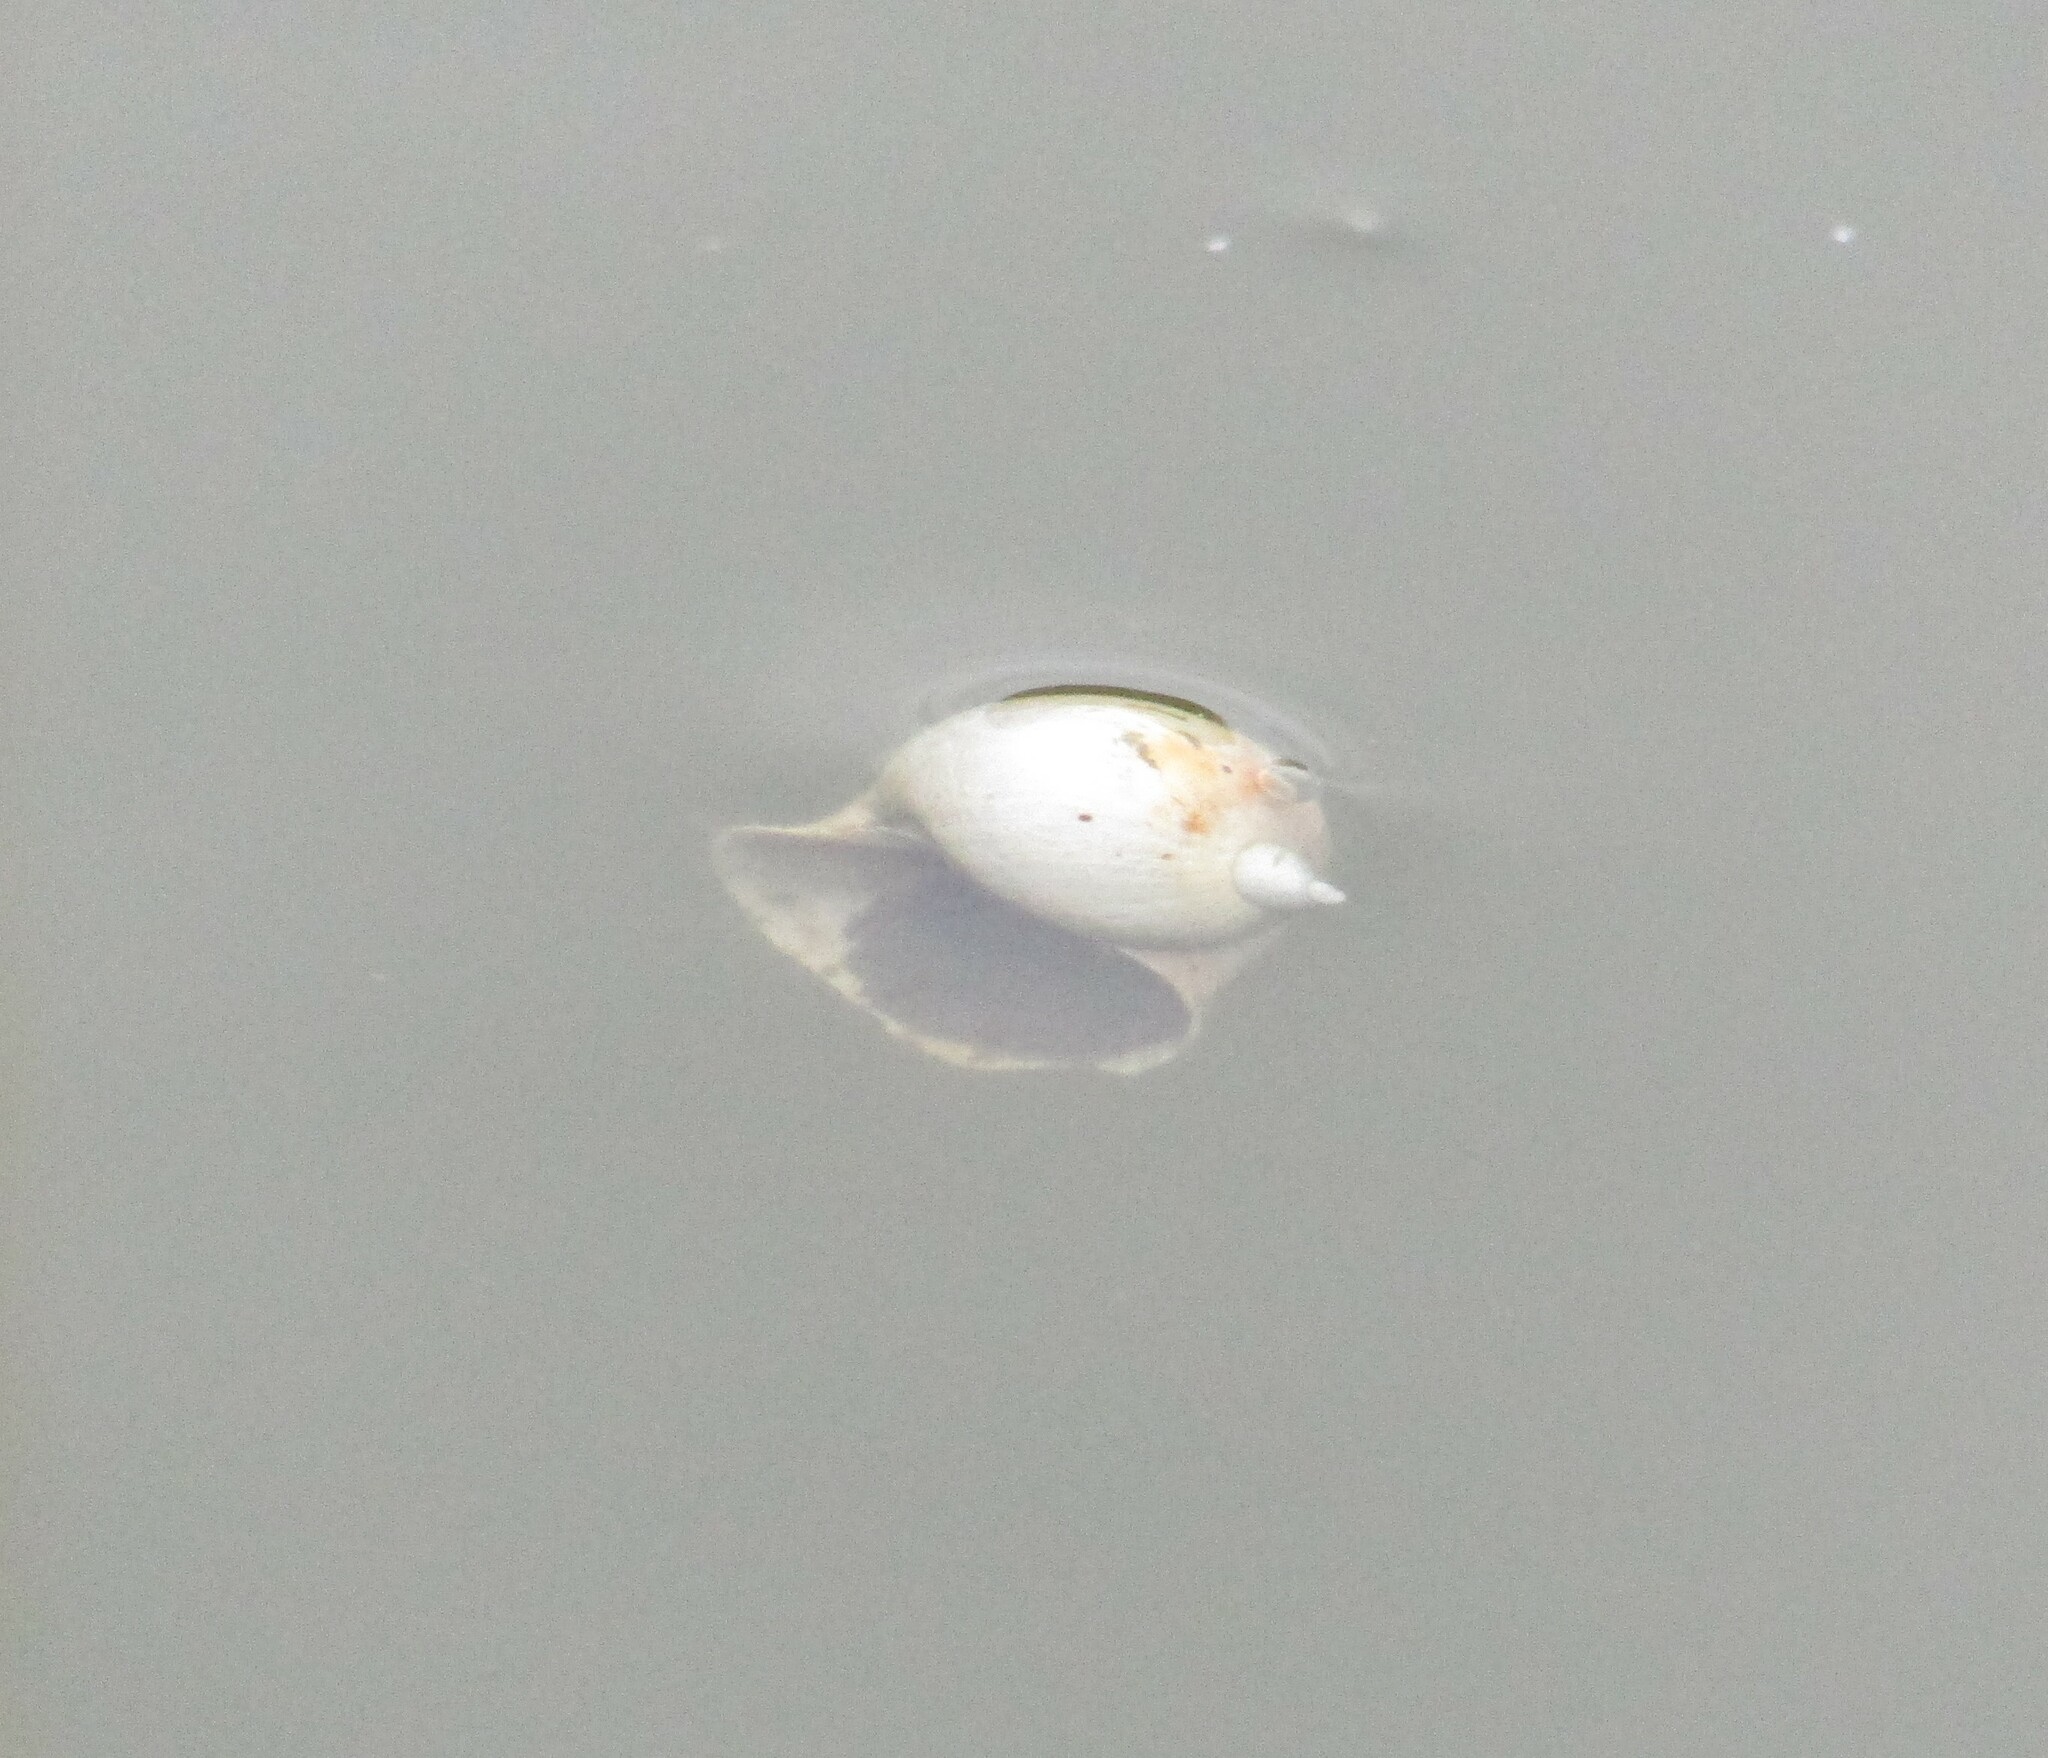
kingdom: Animalia
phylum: Mollusca
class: Gastropoda
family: Lymnaeidae
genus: Radix
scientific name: Radix auricularia
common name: Ear pond snail
